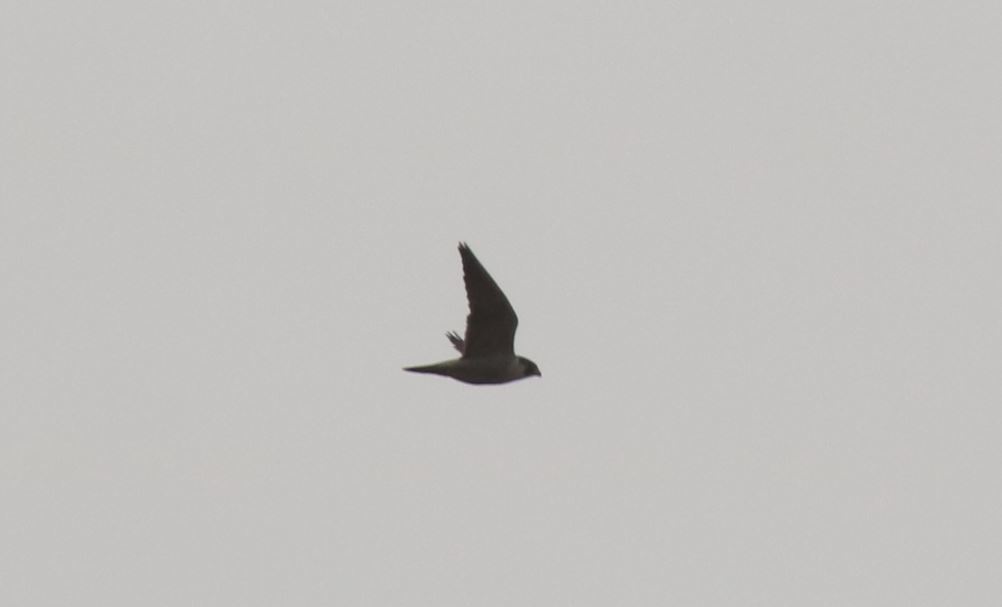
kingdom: Animalia
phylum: Chordata
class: Aves
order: Falconiformes
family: Falconidae
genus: Falco
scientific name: Falco peregrinus
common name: Peregrine falcon
